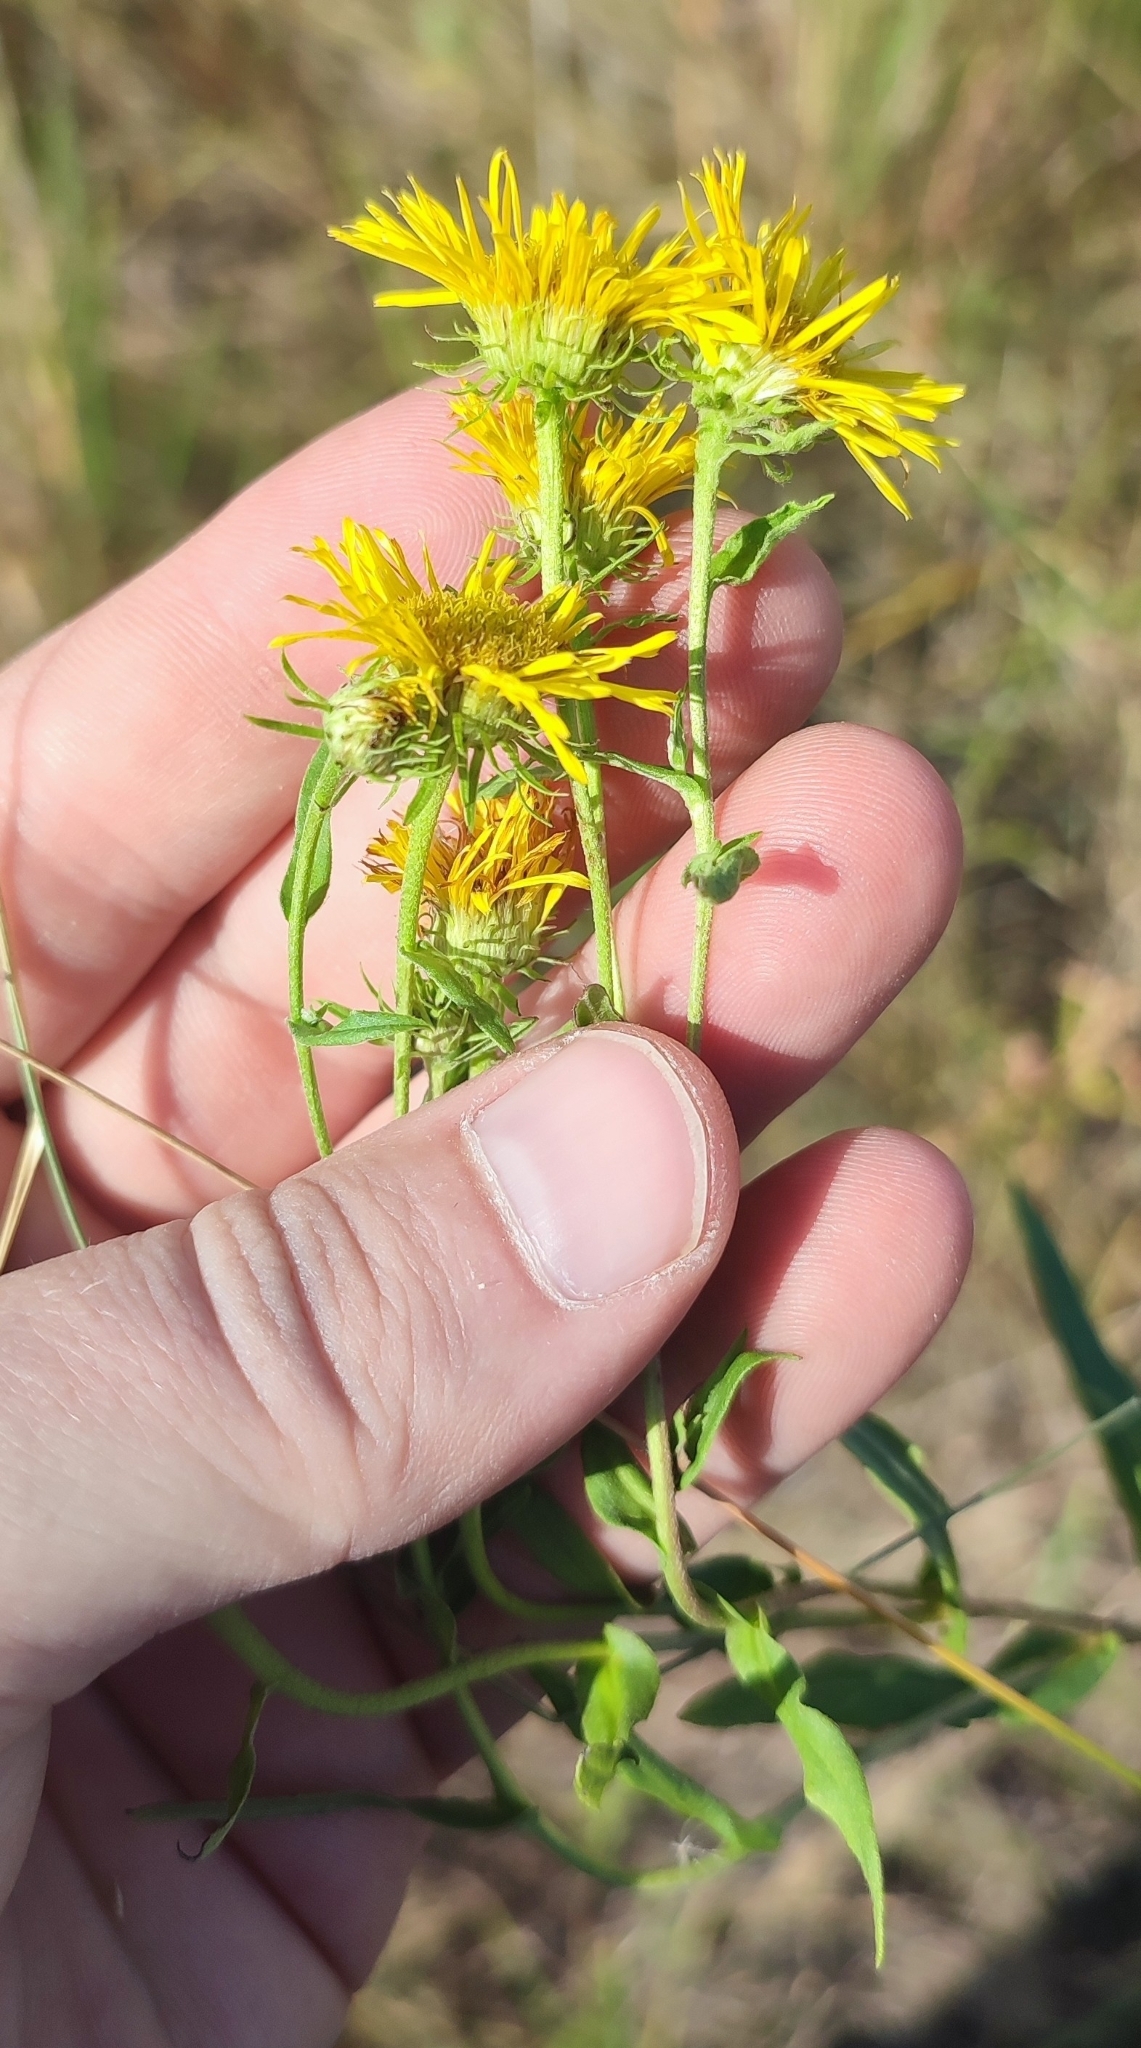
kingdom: Plantae
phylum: Tracheophyta
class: Magnoliopsida
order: Asterales
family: Asteraceae
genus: Pentanema
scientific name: Pentanema britannicum
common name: British elecampane
